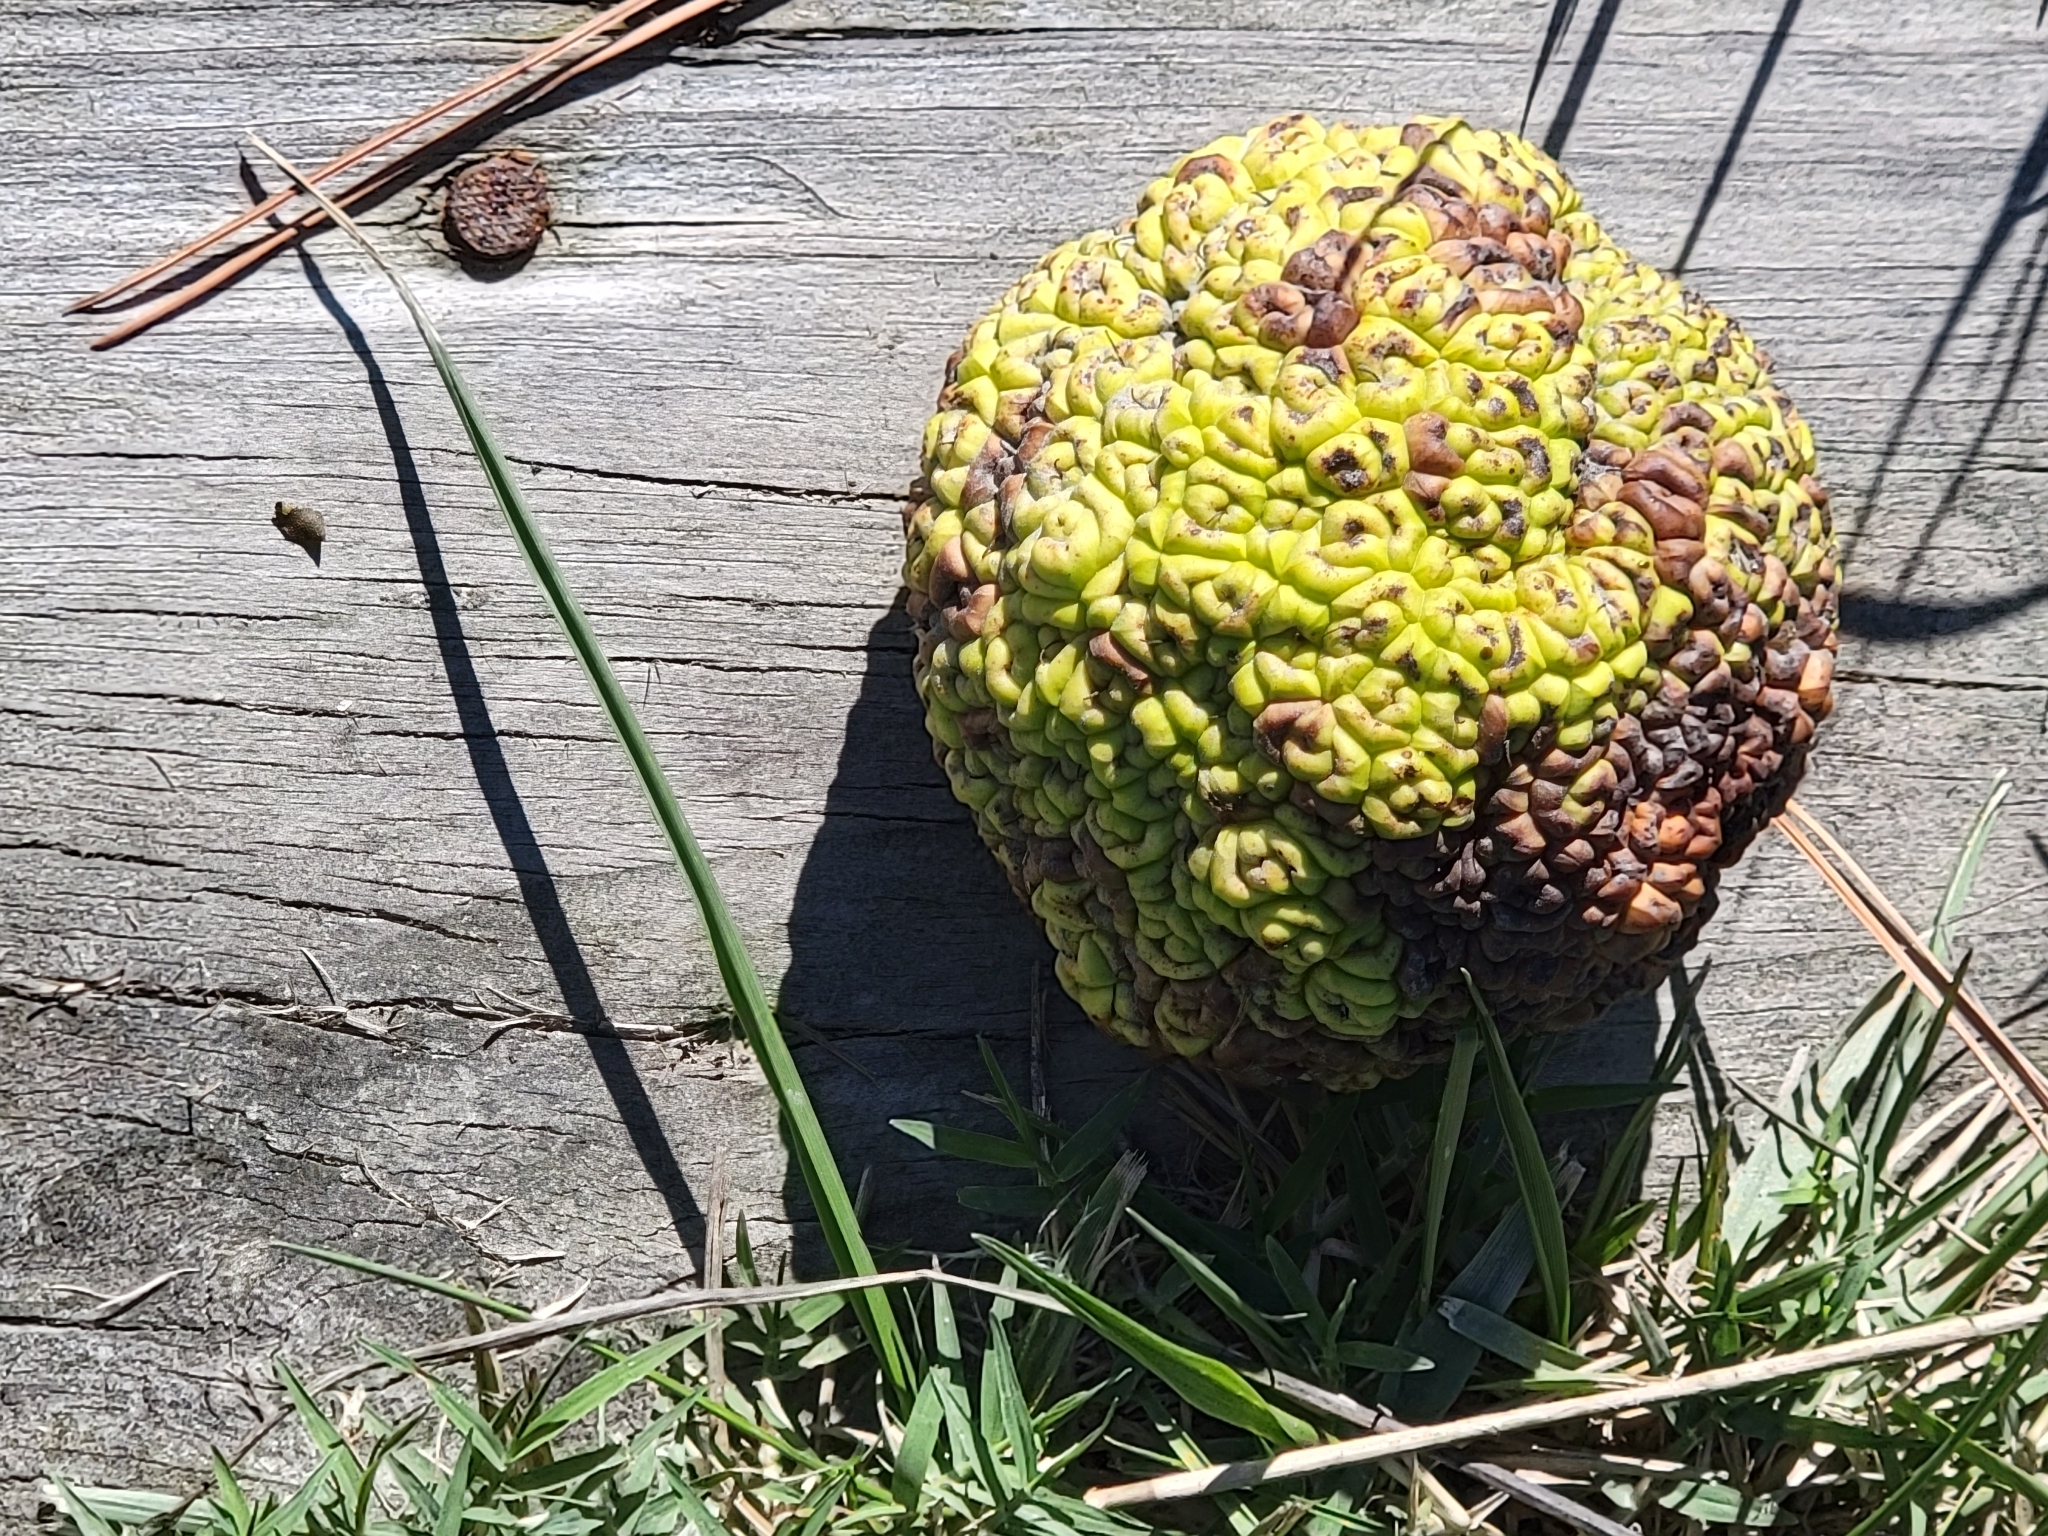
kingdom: Plantae
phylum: Tracheophyta
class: Magnoliopsida
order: Rosales
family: Moraceae
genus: Maclura
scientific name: Maclura pomifera
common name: Osage-orange
